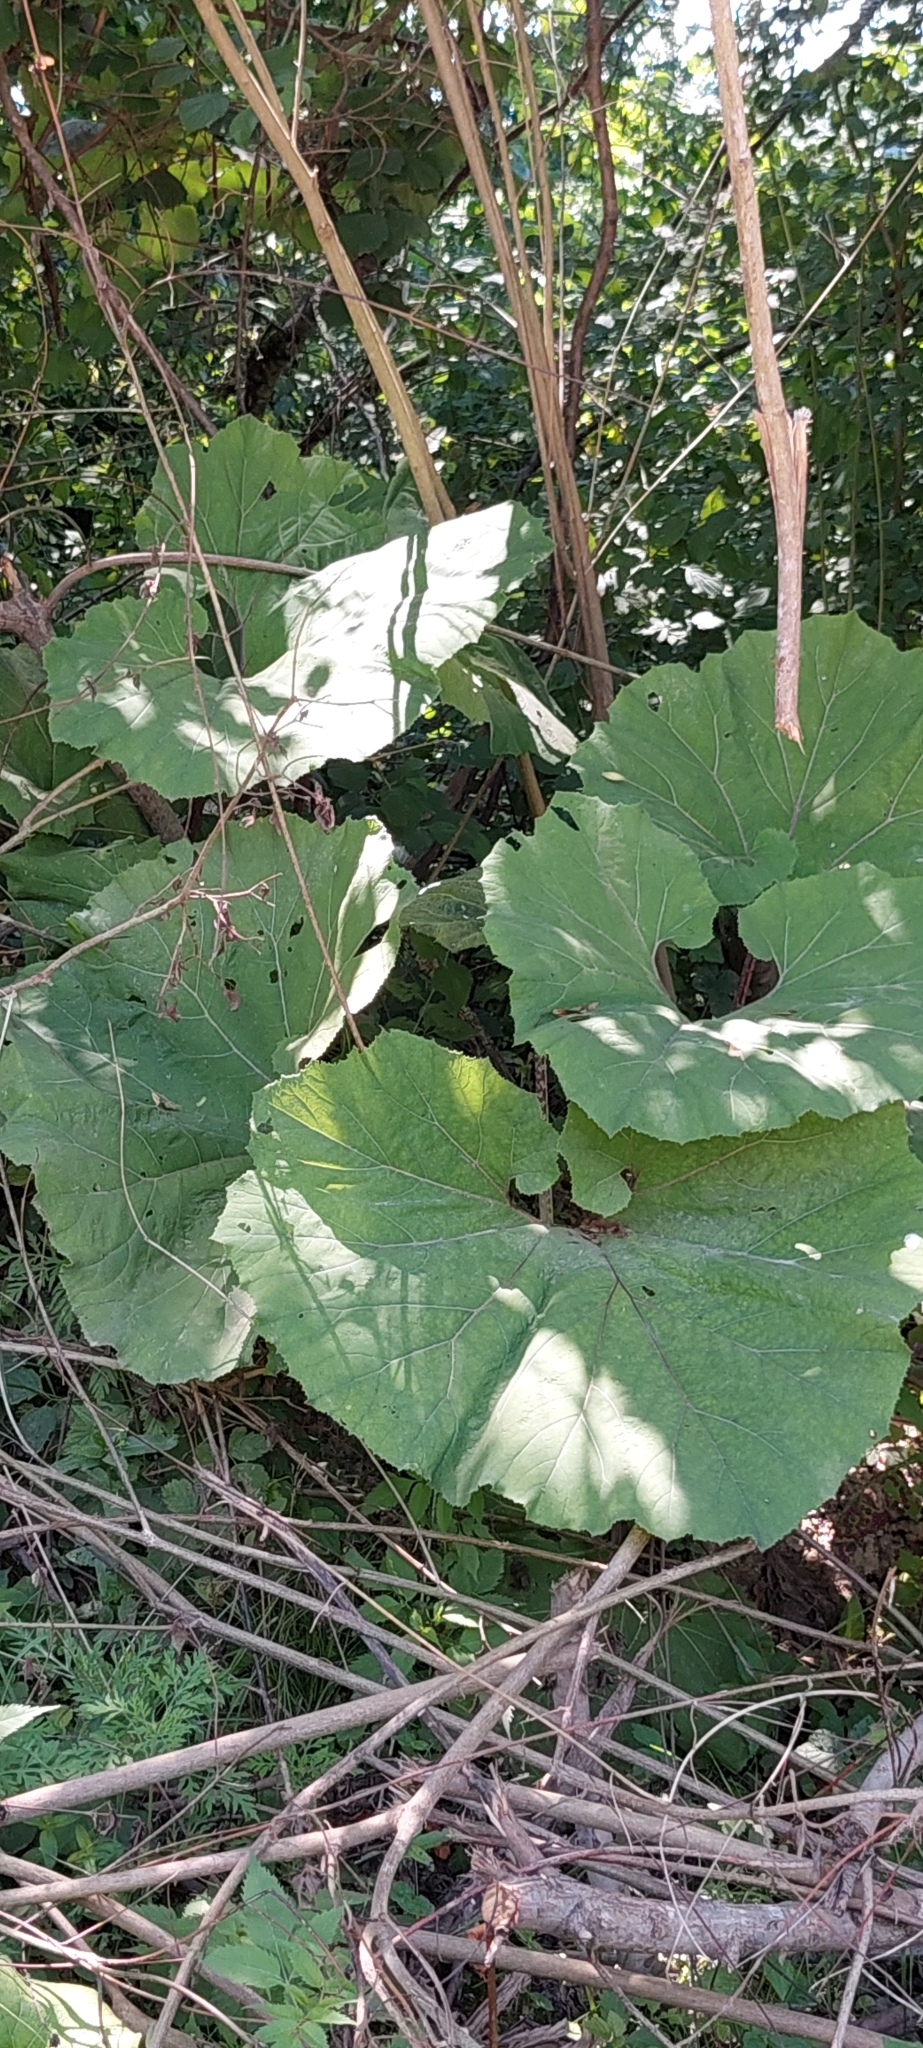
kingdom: Plantae
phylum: Tracheophyta
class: Magnoliopsida
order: Asterales
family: Asteraceae
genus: Petasites
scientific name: Petasites hybridus
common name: Butterbur
